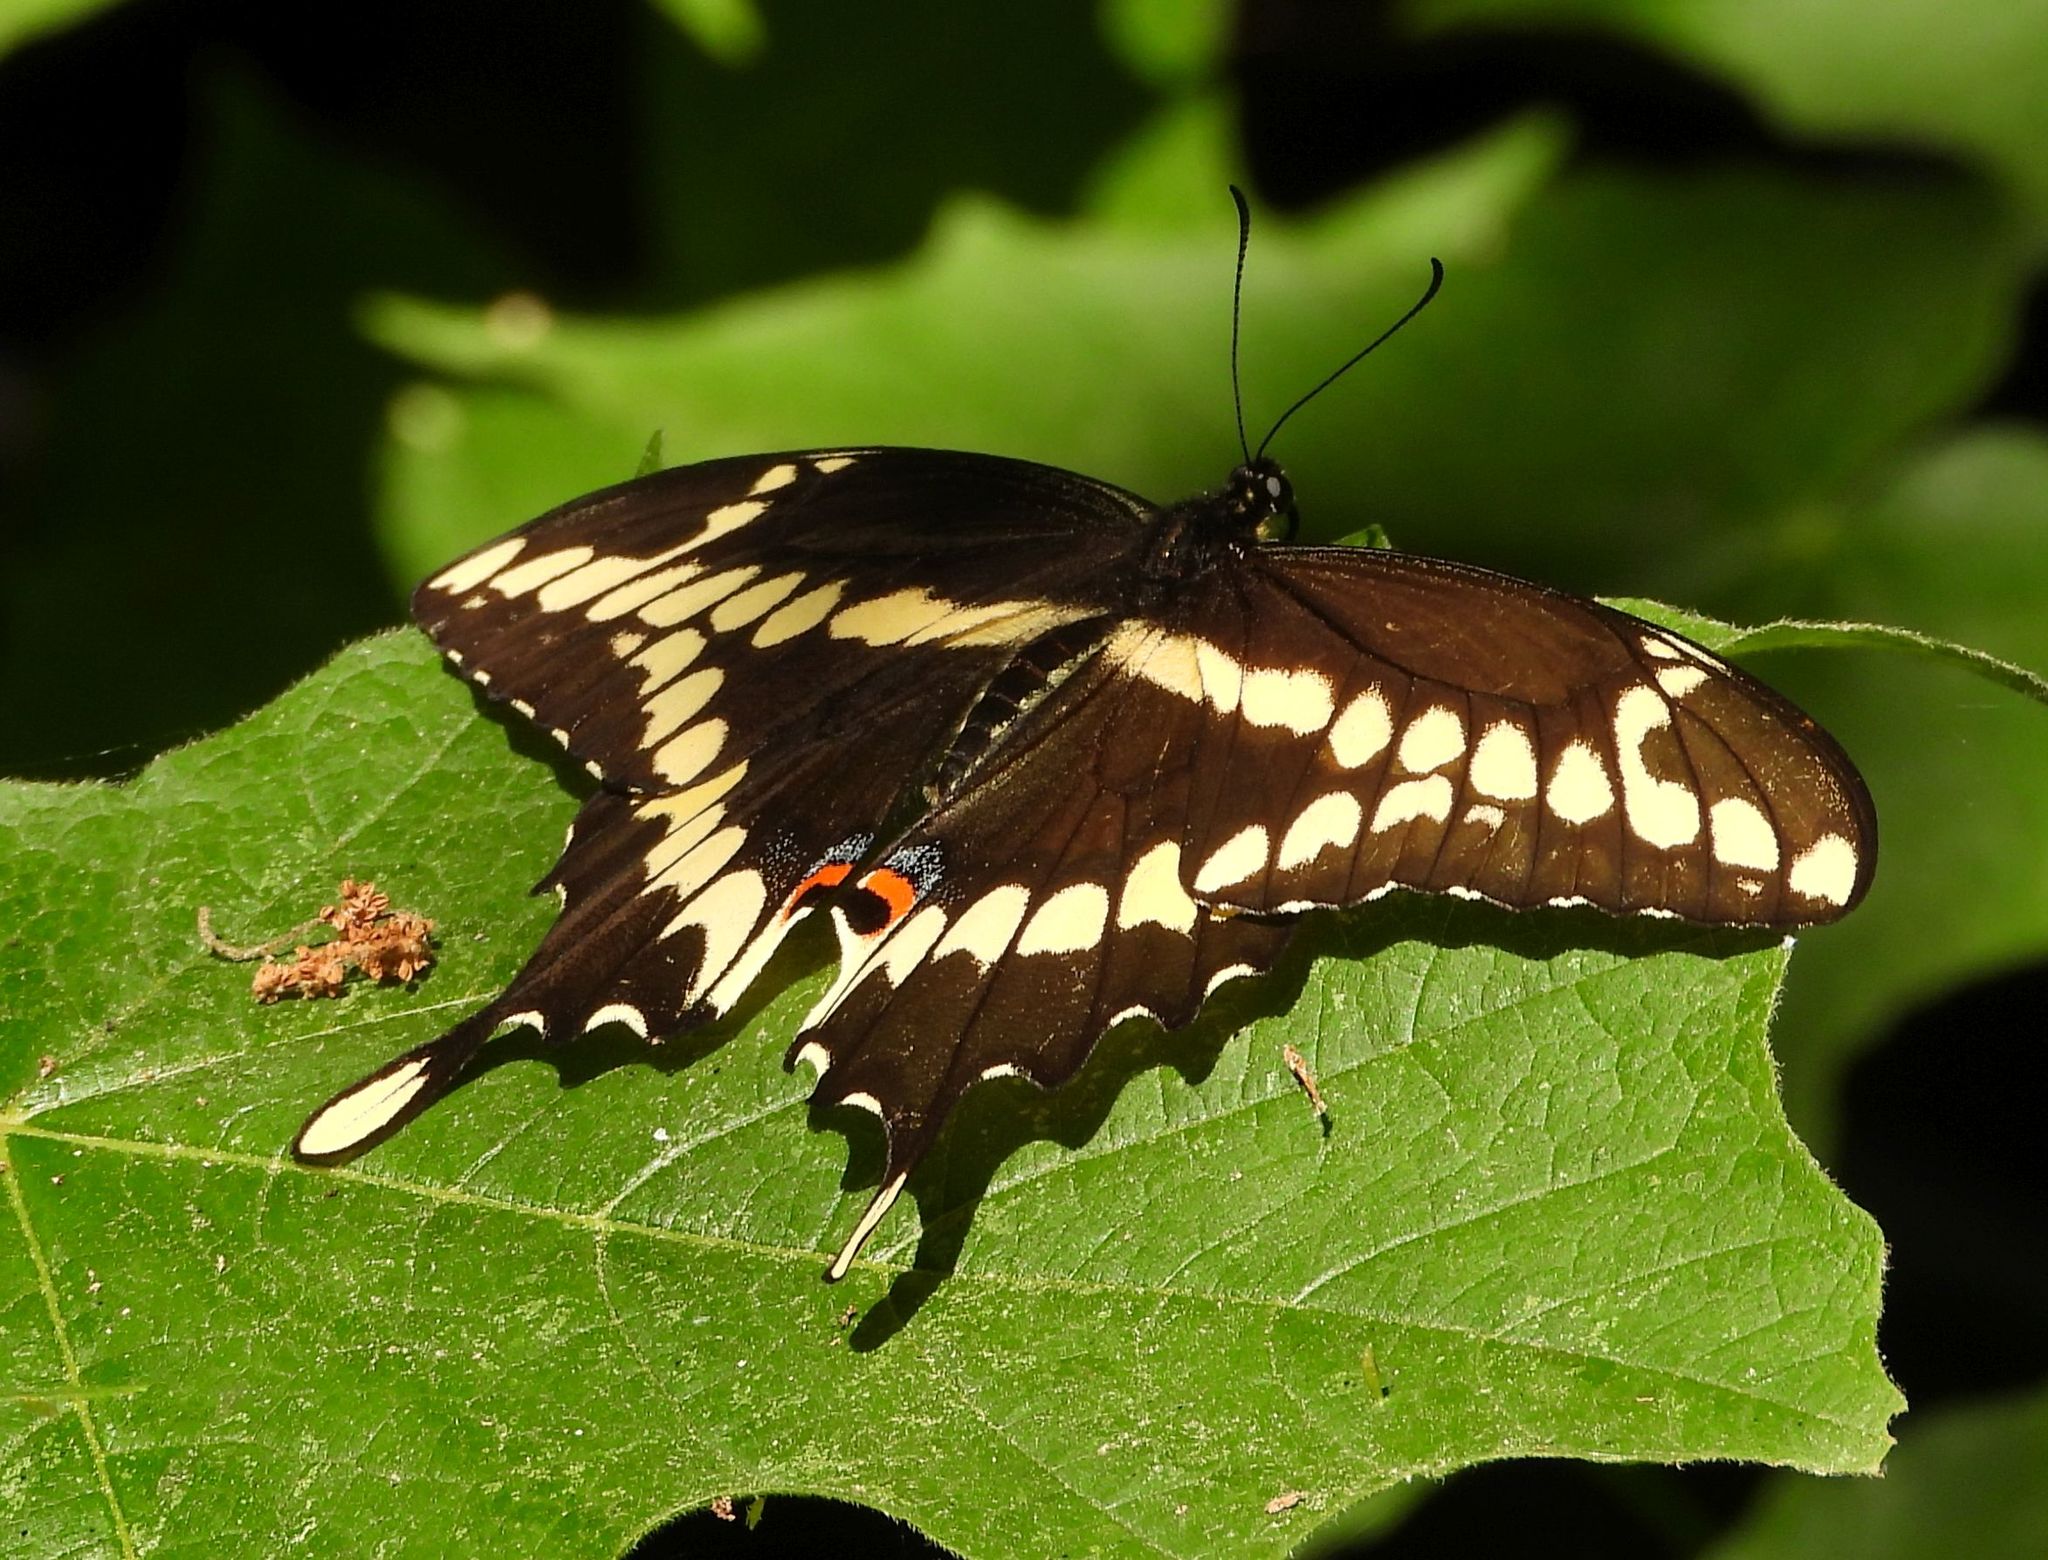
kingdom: Animalia
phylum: Arthropoda
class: Insecta
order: Lepidoptera
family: Papilionidae
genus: Papilio
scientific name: Papilio cresphontes
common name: Giant swallowtail
